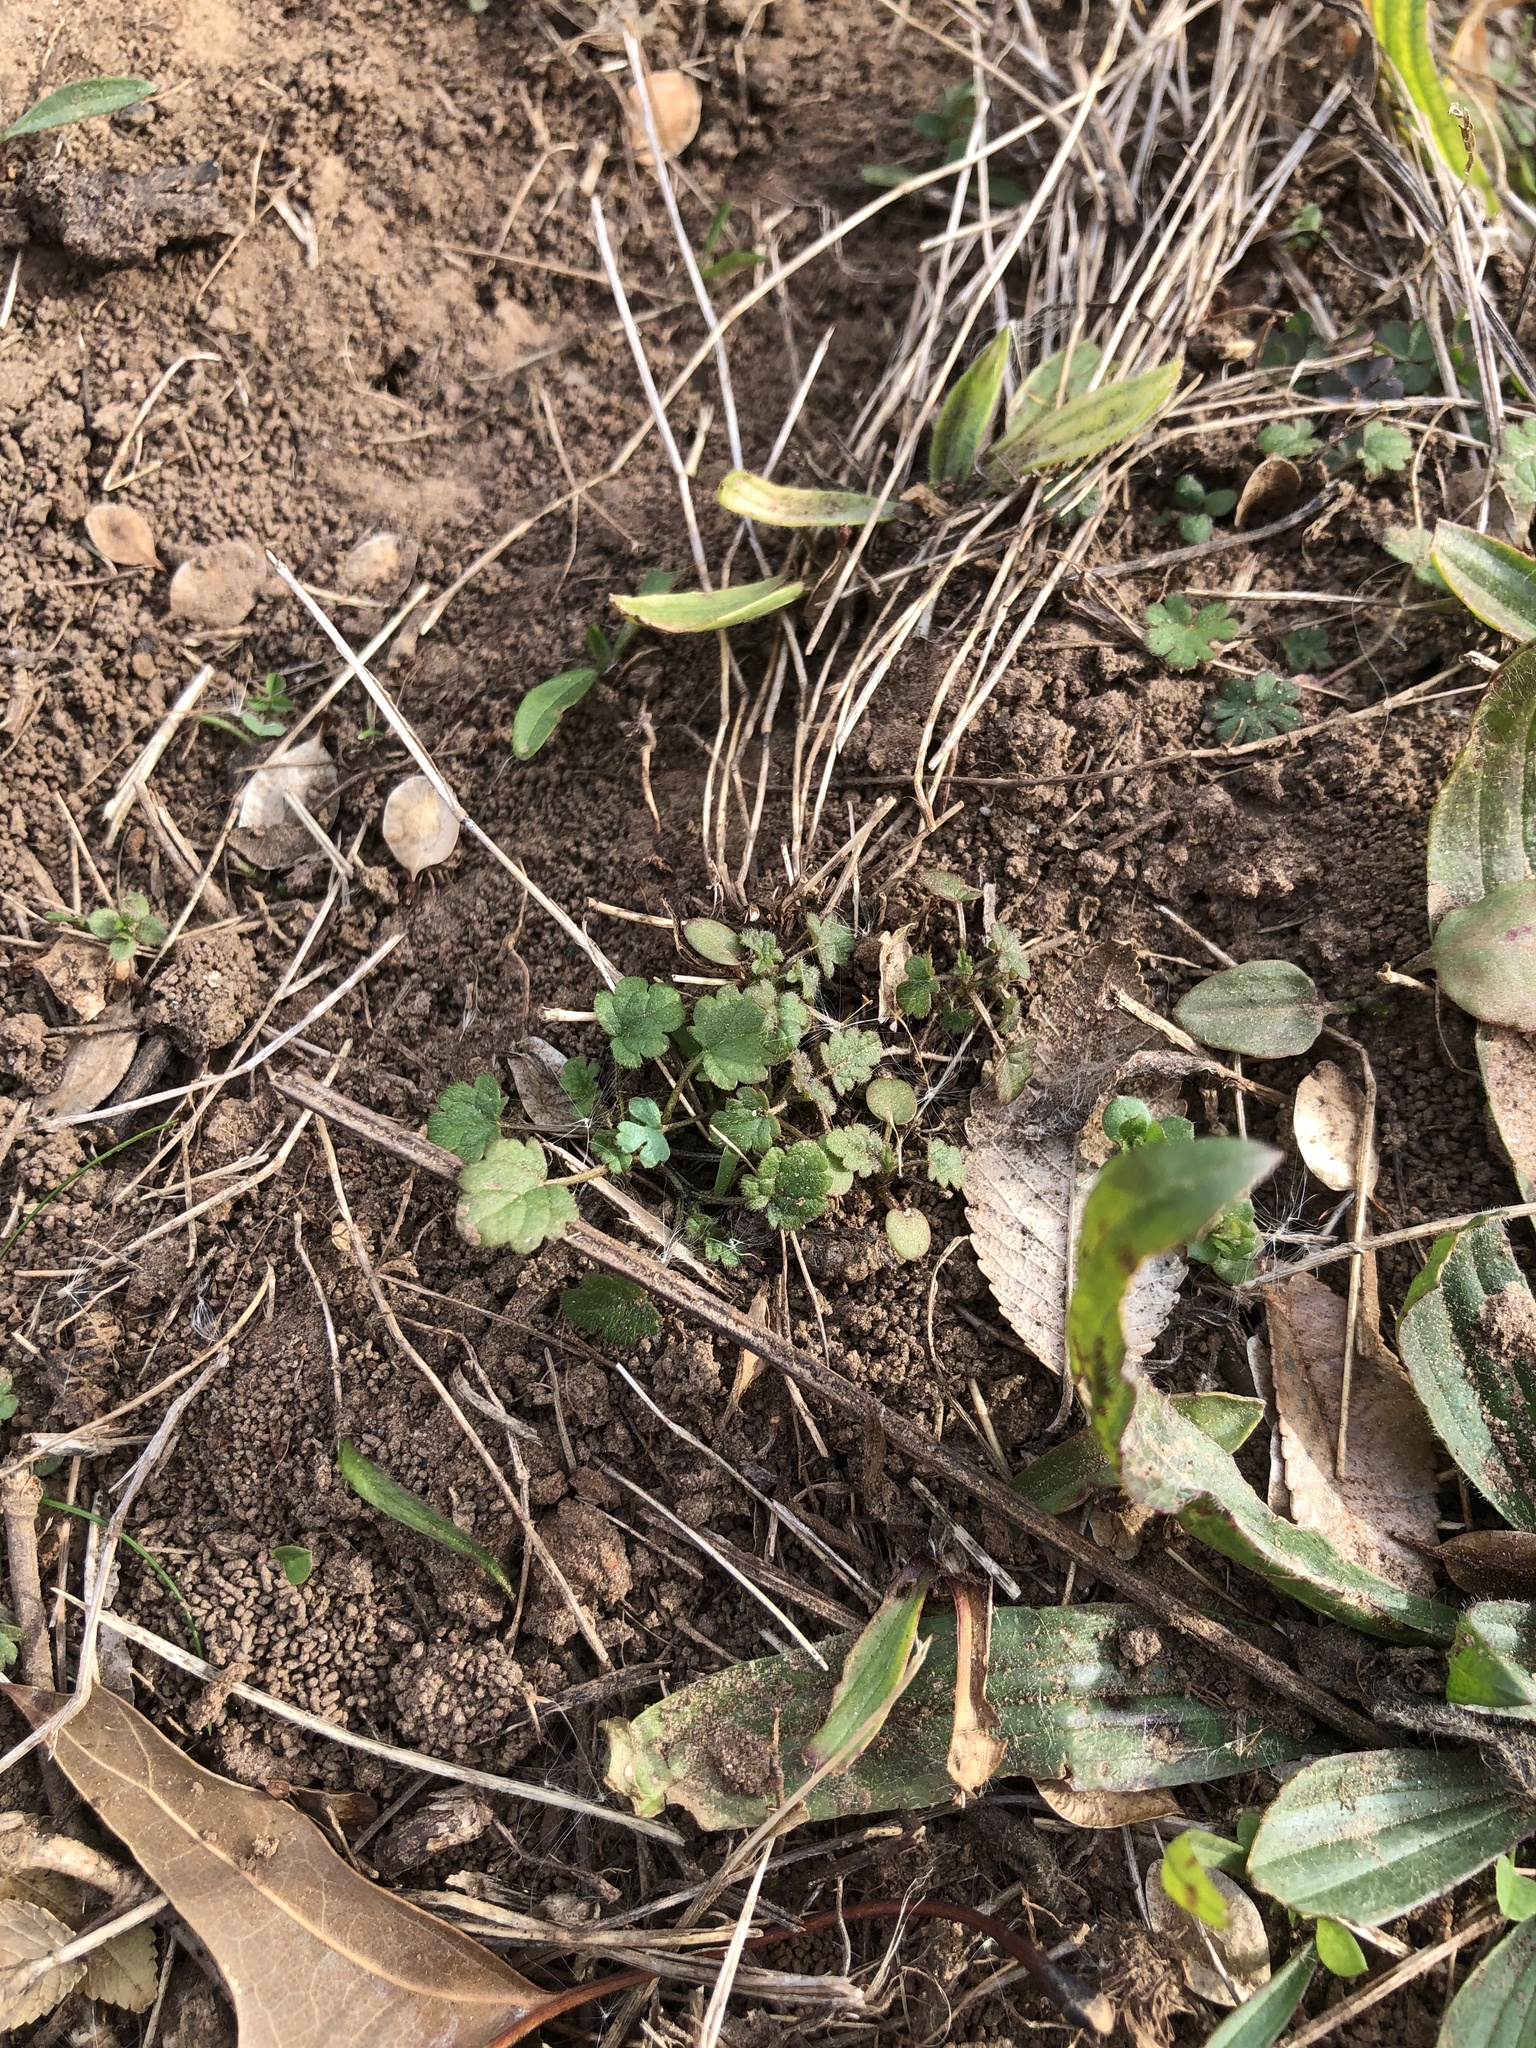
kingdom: Plantae
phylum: Tracheophyta
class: Magnoliopsida
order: Lamiales
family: Lamiaceae
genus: Lamium
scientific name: Lamium amplexicaule
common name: Henbit dead-nettle
